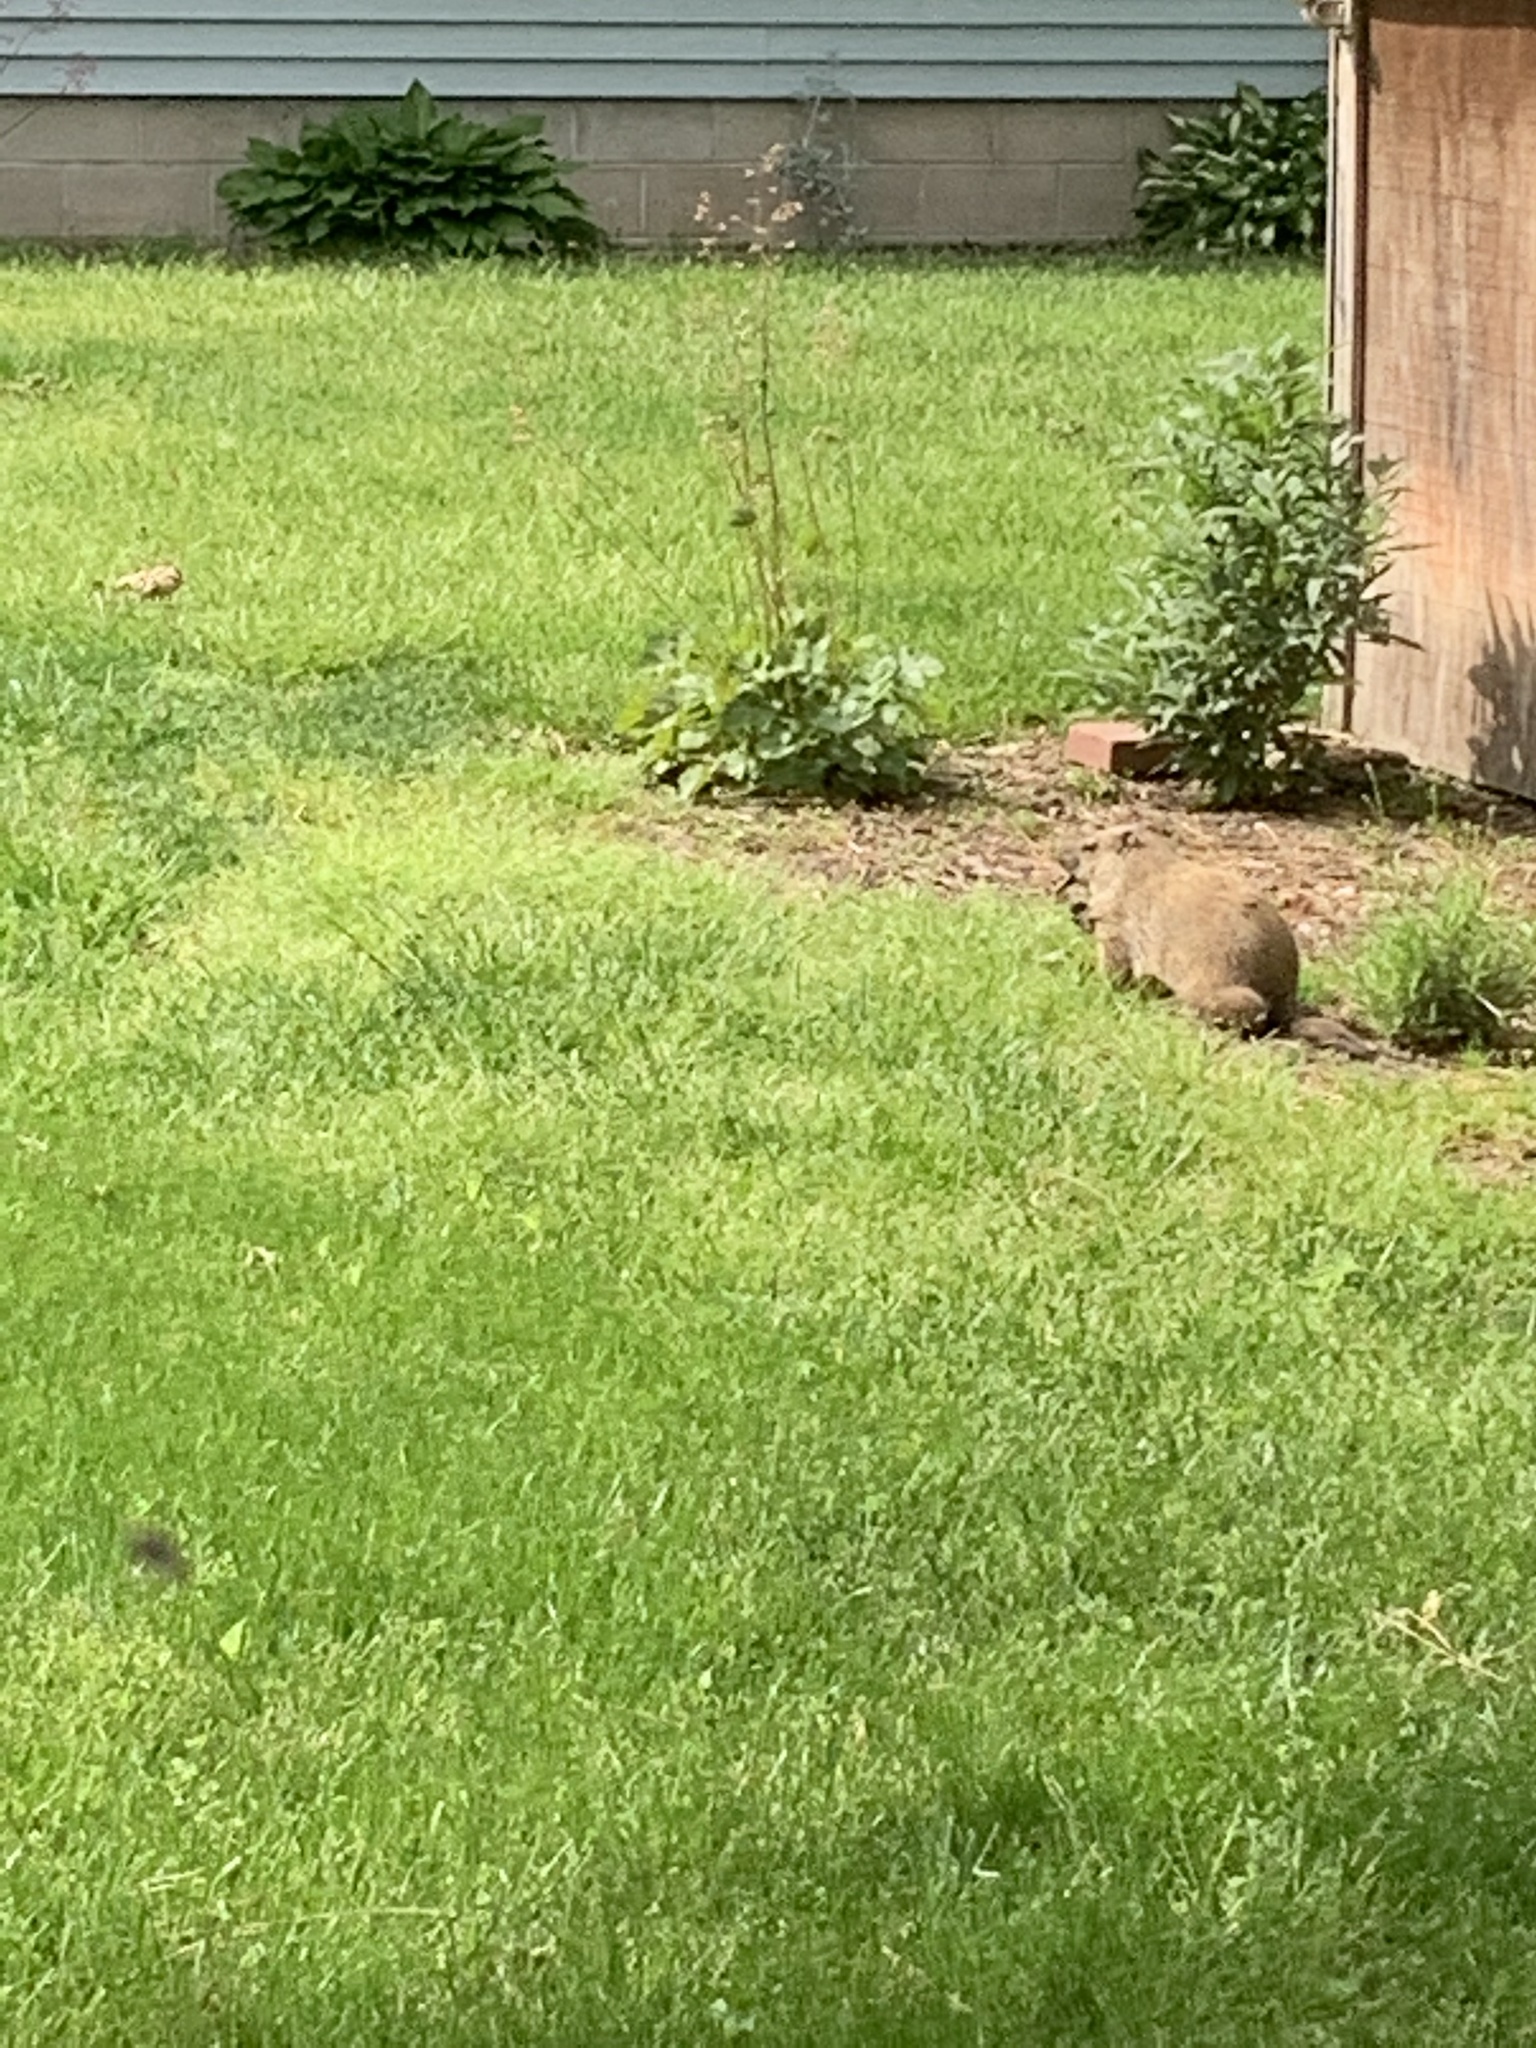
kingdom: Animalia
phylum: Chordata
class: Mammalia
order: Rodentia
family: Sciuridae
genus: Marmota
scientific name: Marmota monax
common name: Groundhog
